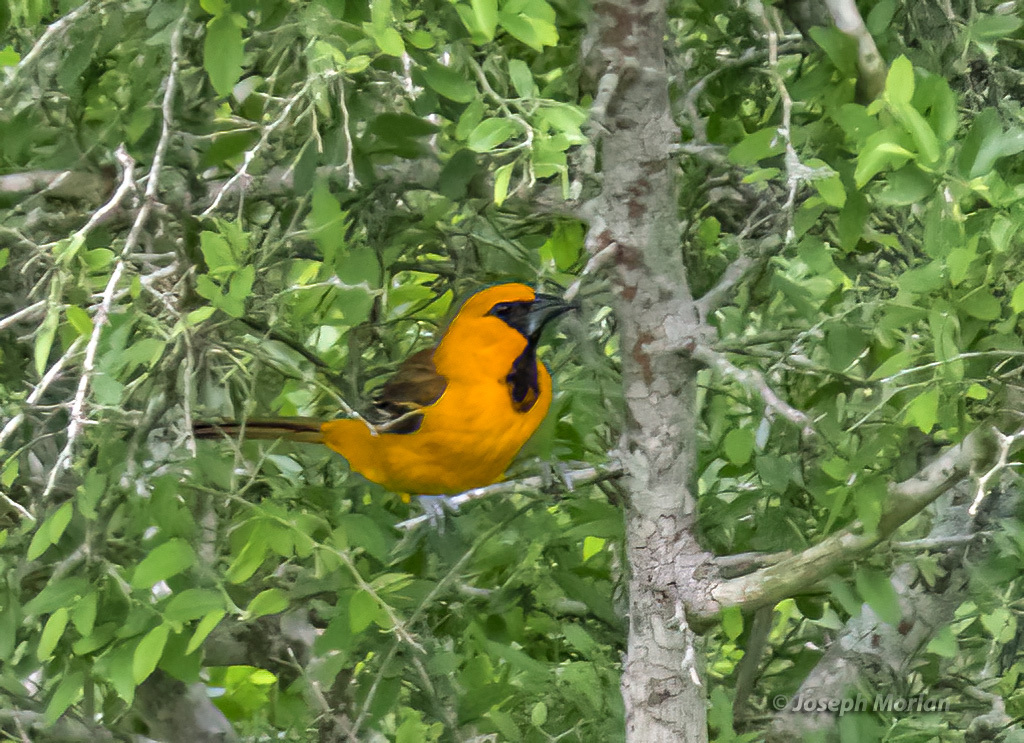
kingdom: Animalia
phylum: Chordata
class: Aves
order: Passeriformes
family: Icteridae
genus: Icterus
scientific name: Icterus gularis
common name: Altamira oriole
